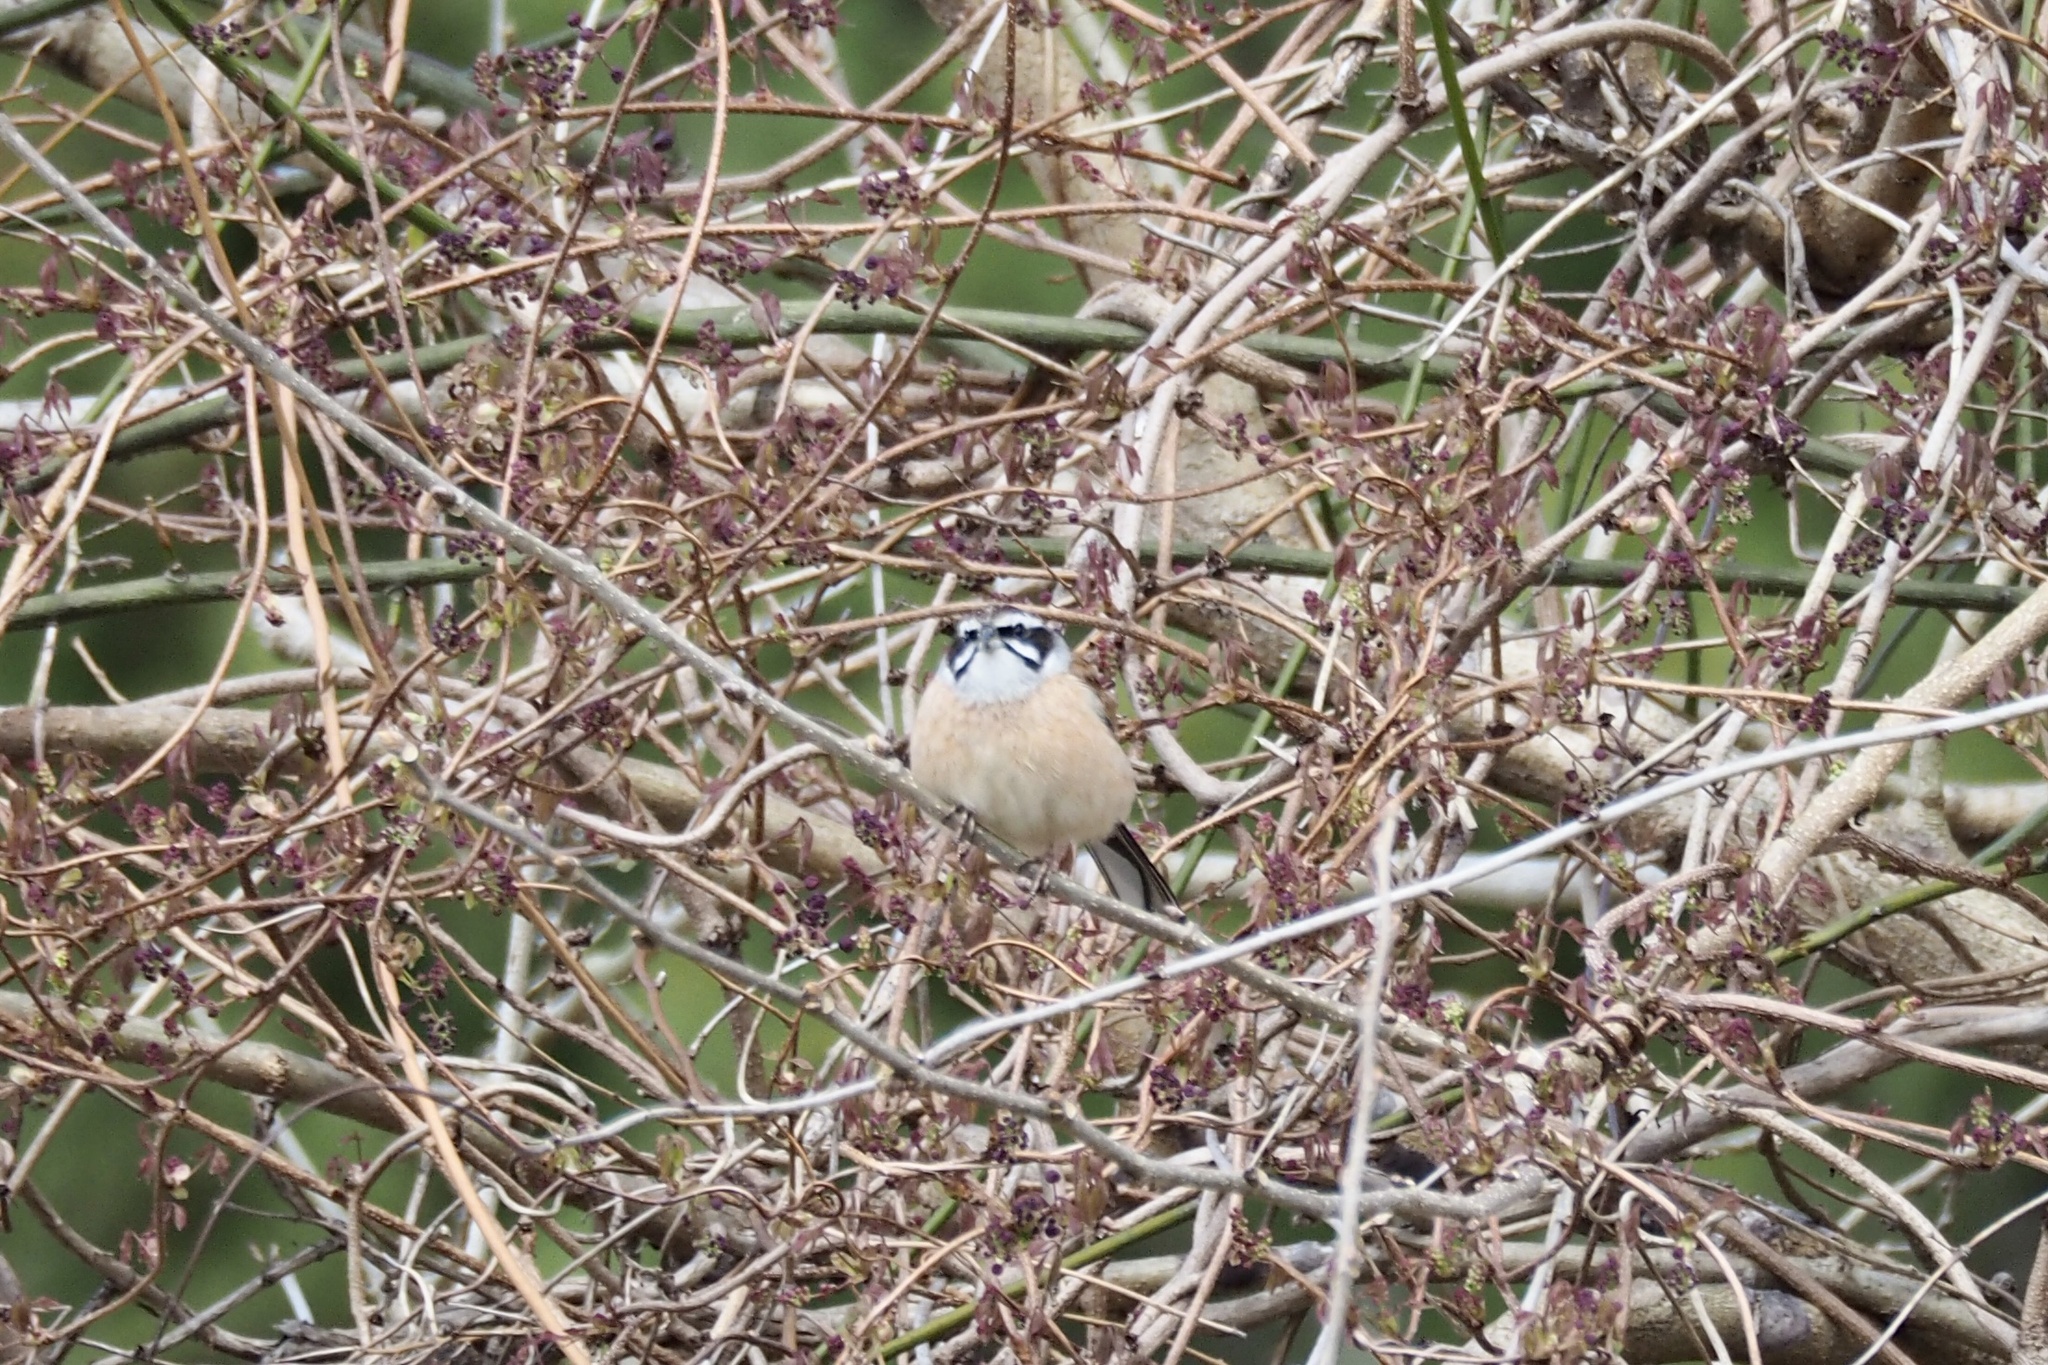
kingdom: Animalia
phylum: Chordata
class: Aves
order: Passeriformes
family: Emberizidae
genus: Emberiza
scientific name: Emberiza cioides
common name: Meadow bunting
